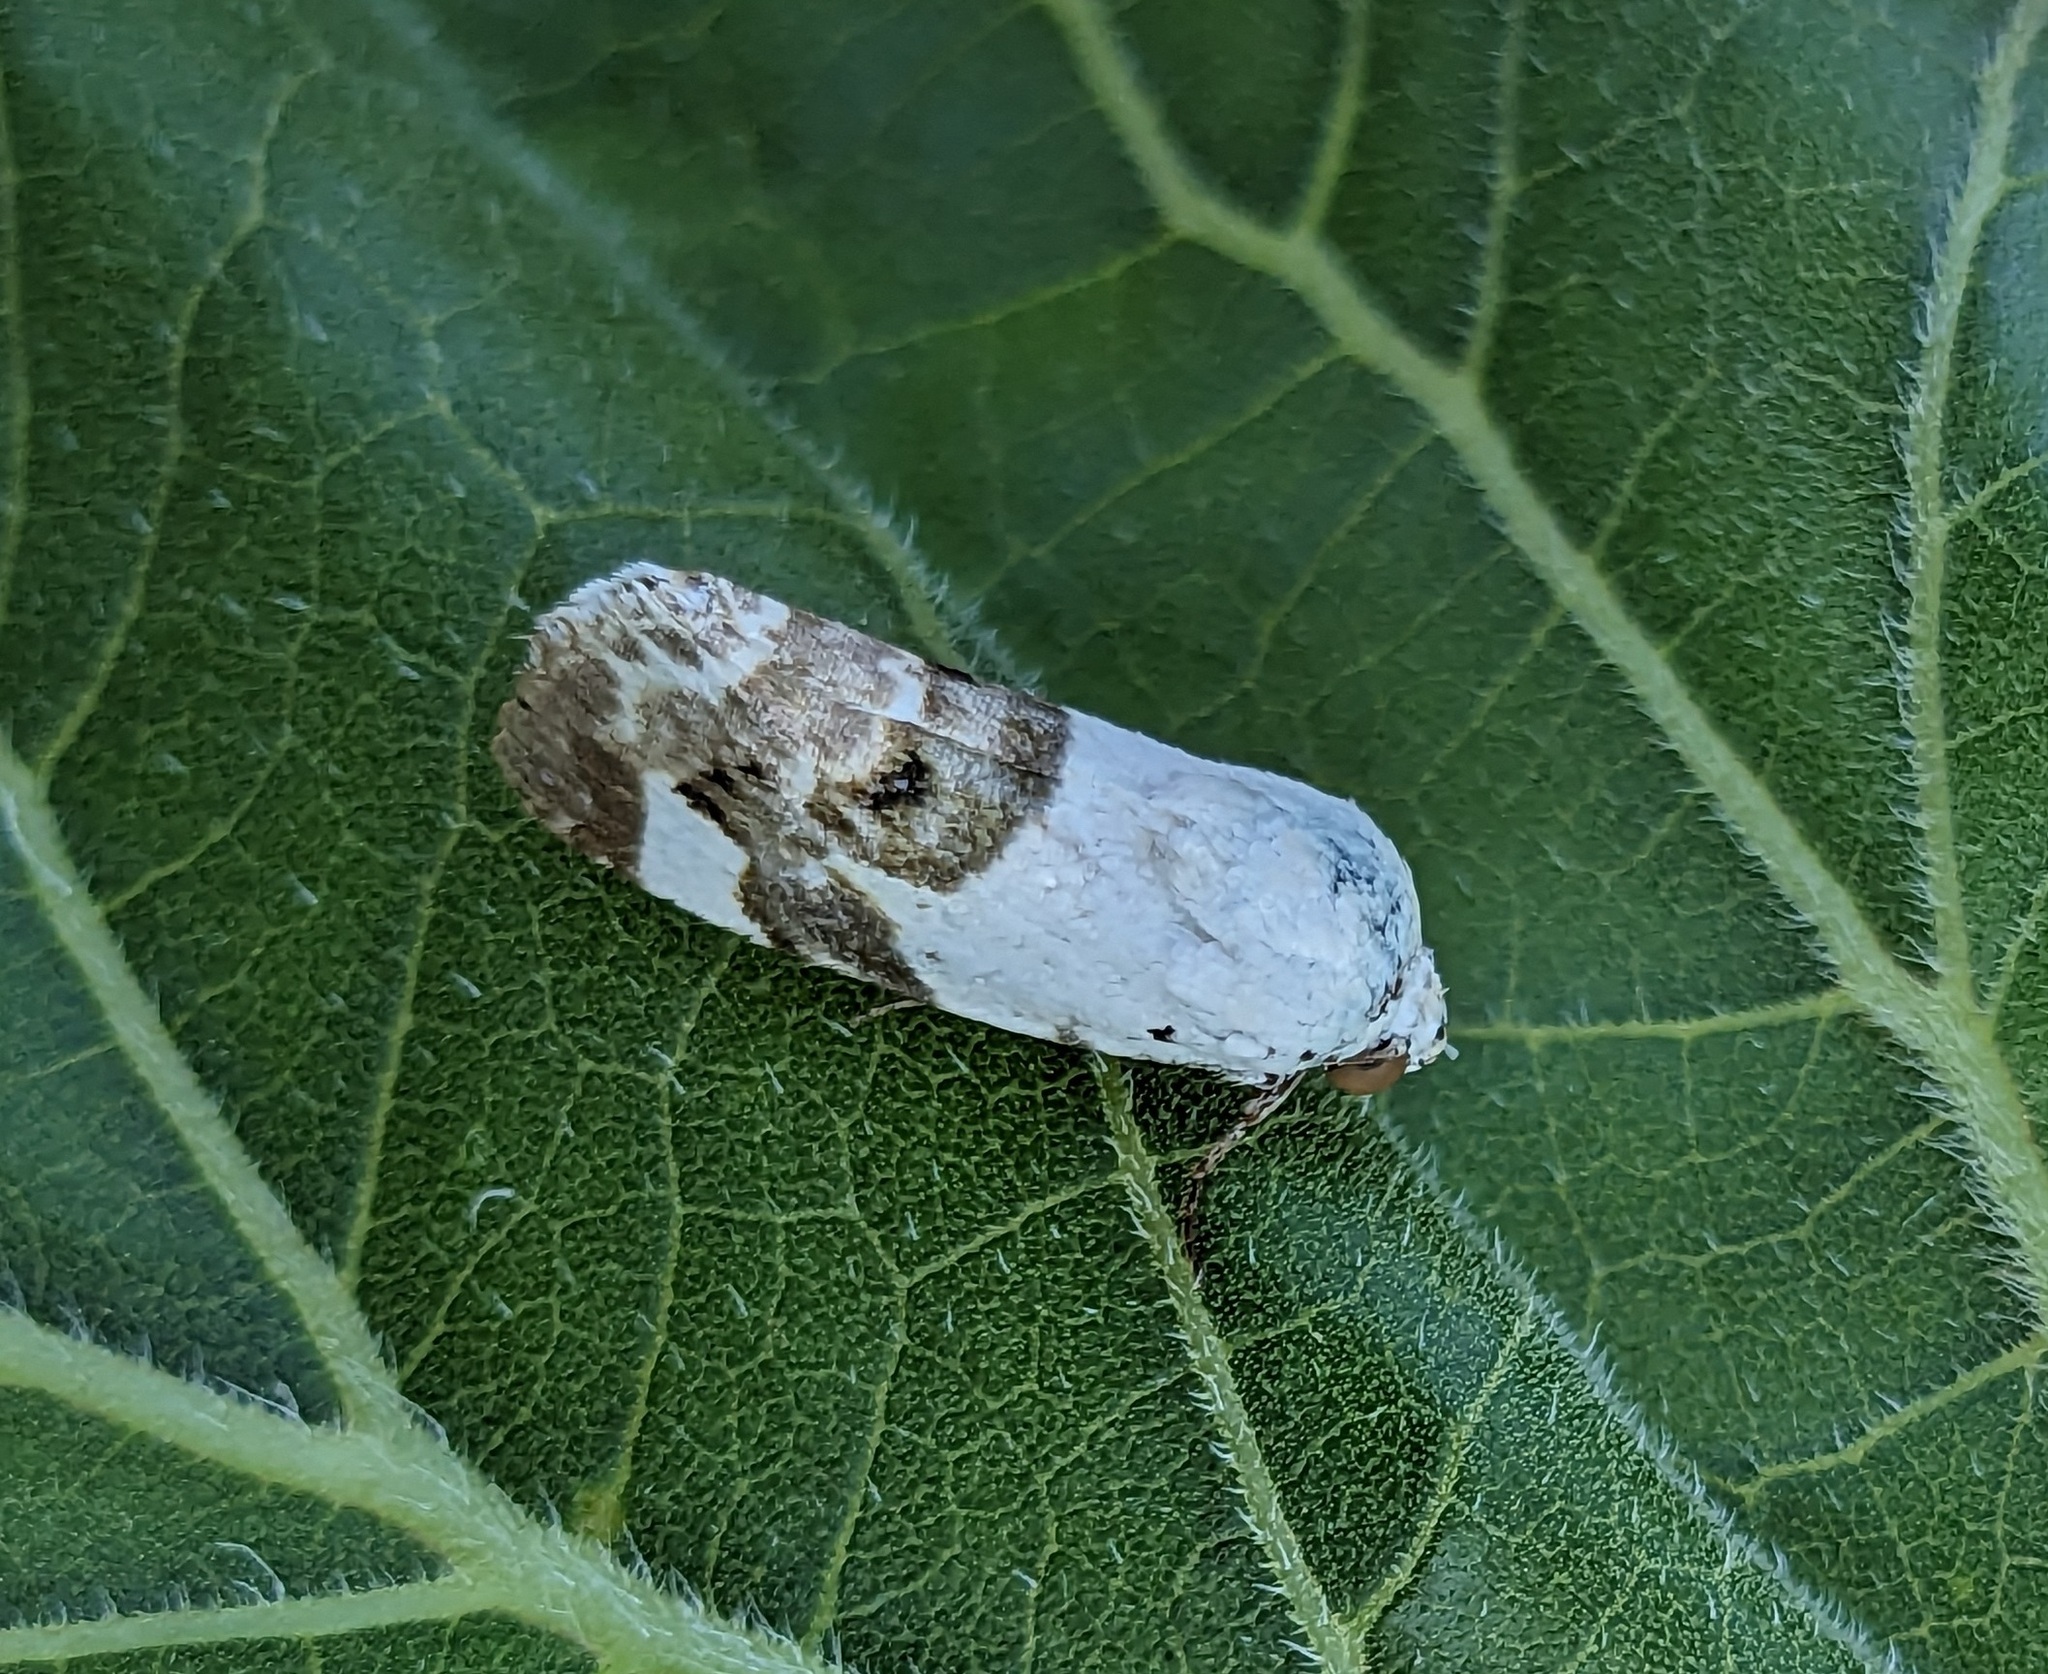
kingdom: Animalia
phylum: Arthropoda
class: Insecta
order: Lepidoptera
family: Noctuidae
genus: Acontia
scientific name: Acontia lucida
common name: Pale shoulder
